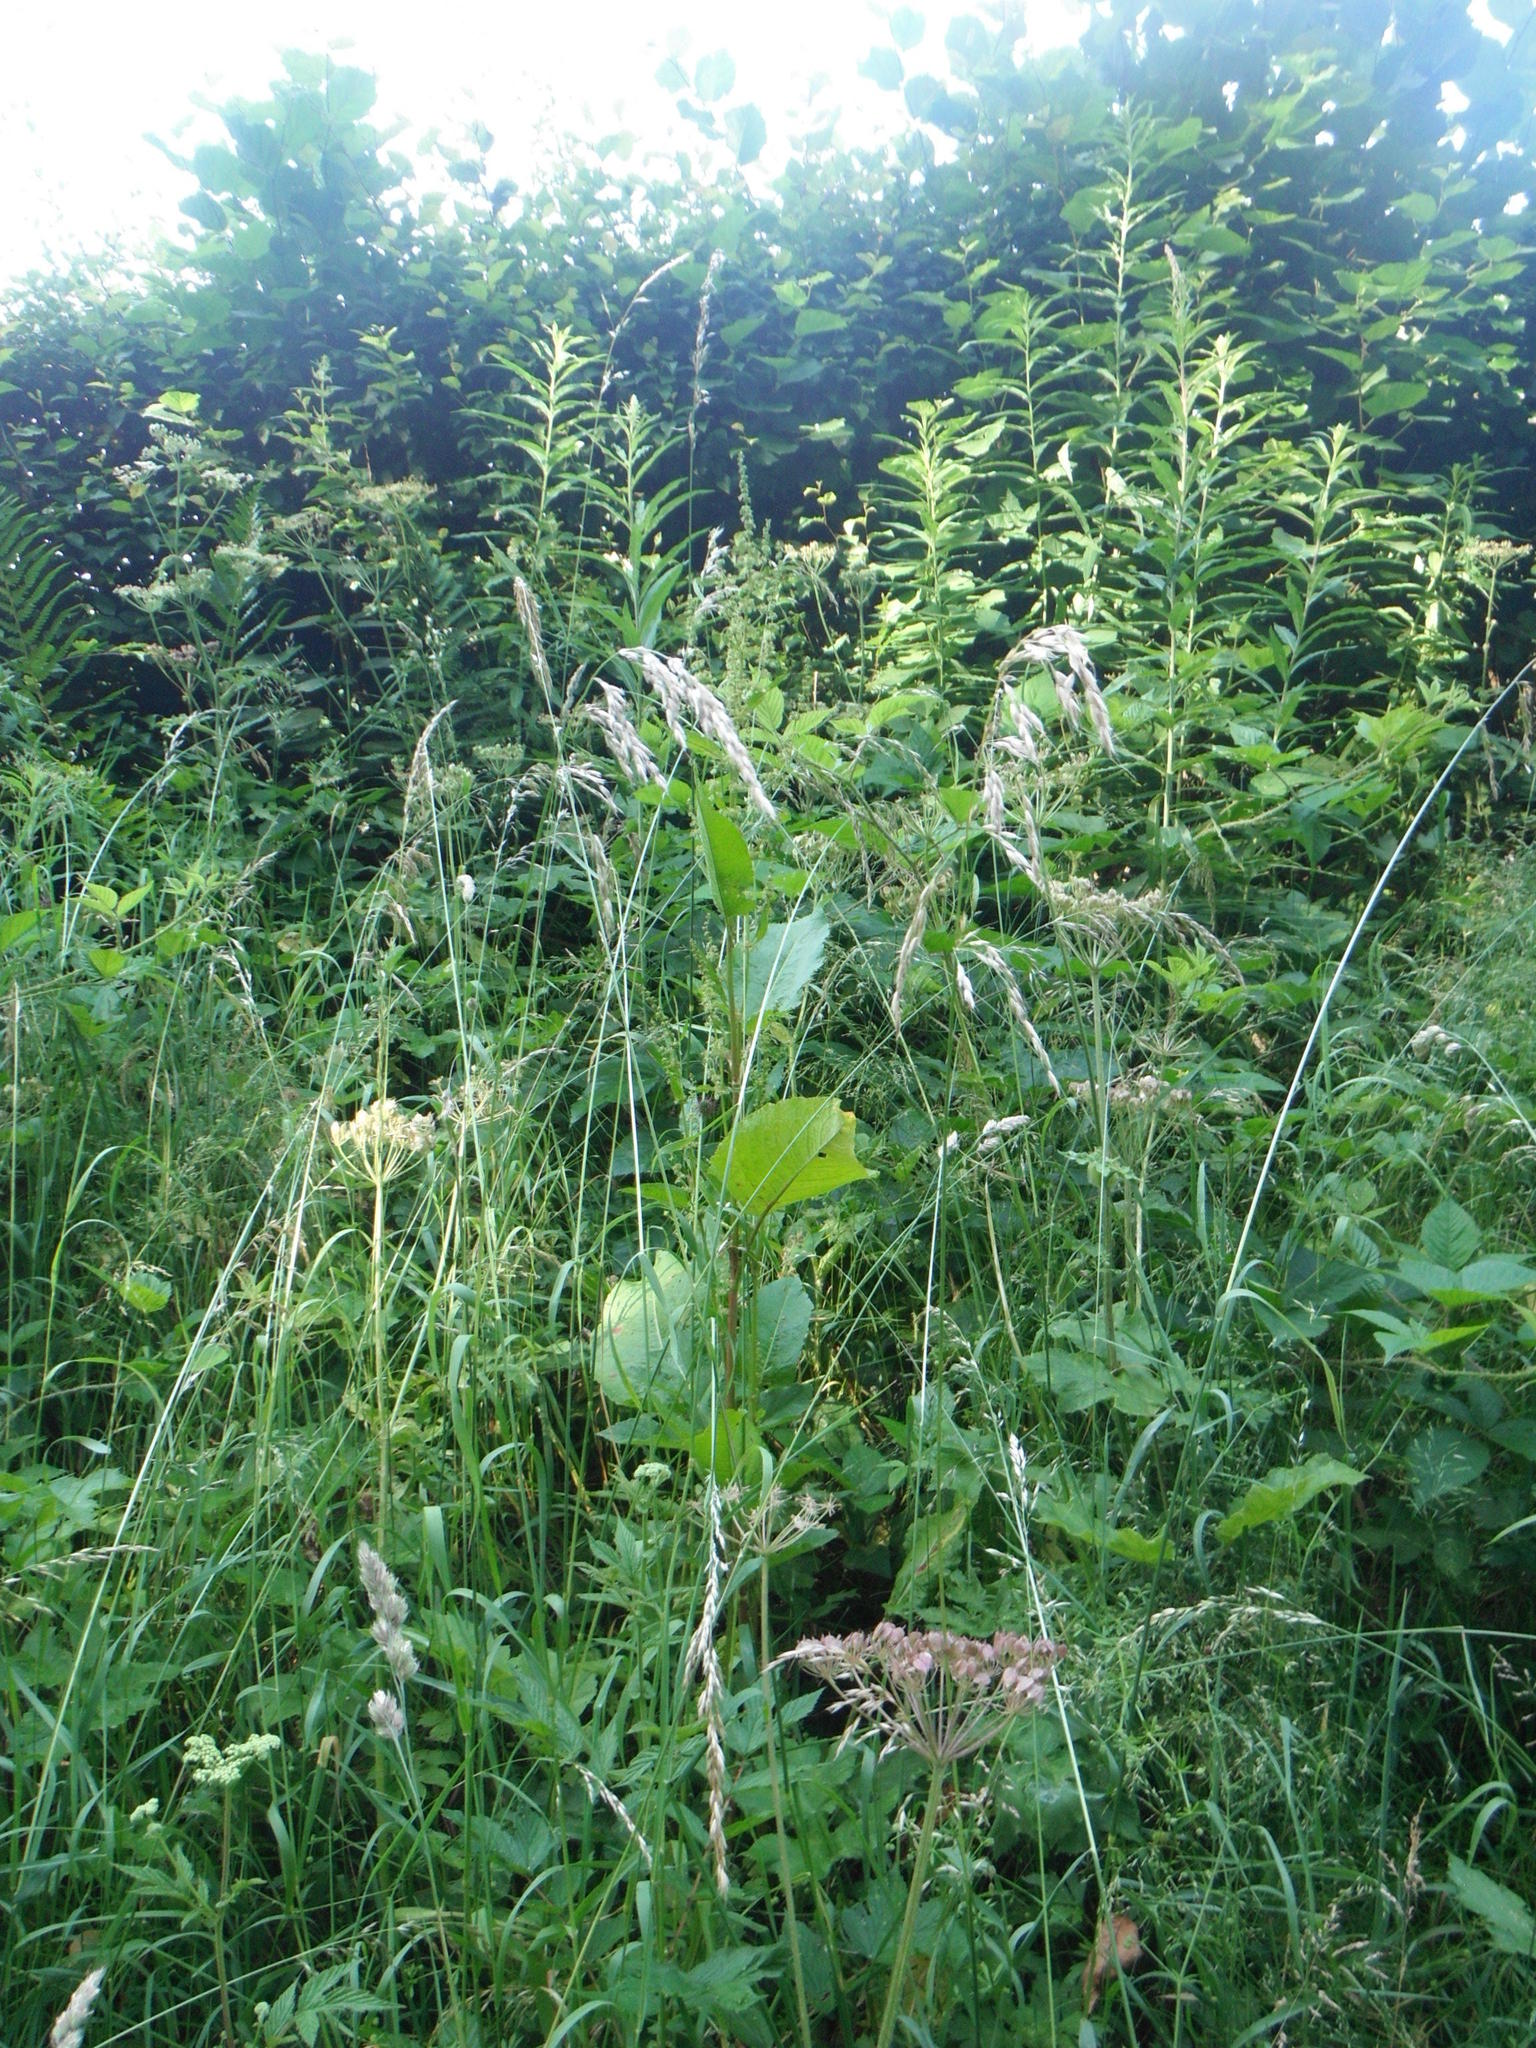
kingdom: Plantae
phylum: Tracheophyta
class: Liliopsida
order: Poales
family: Poaceae
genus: Arrhenatherum
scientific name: Arrhenatherum elatius
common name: Tall oatgrass
